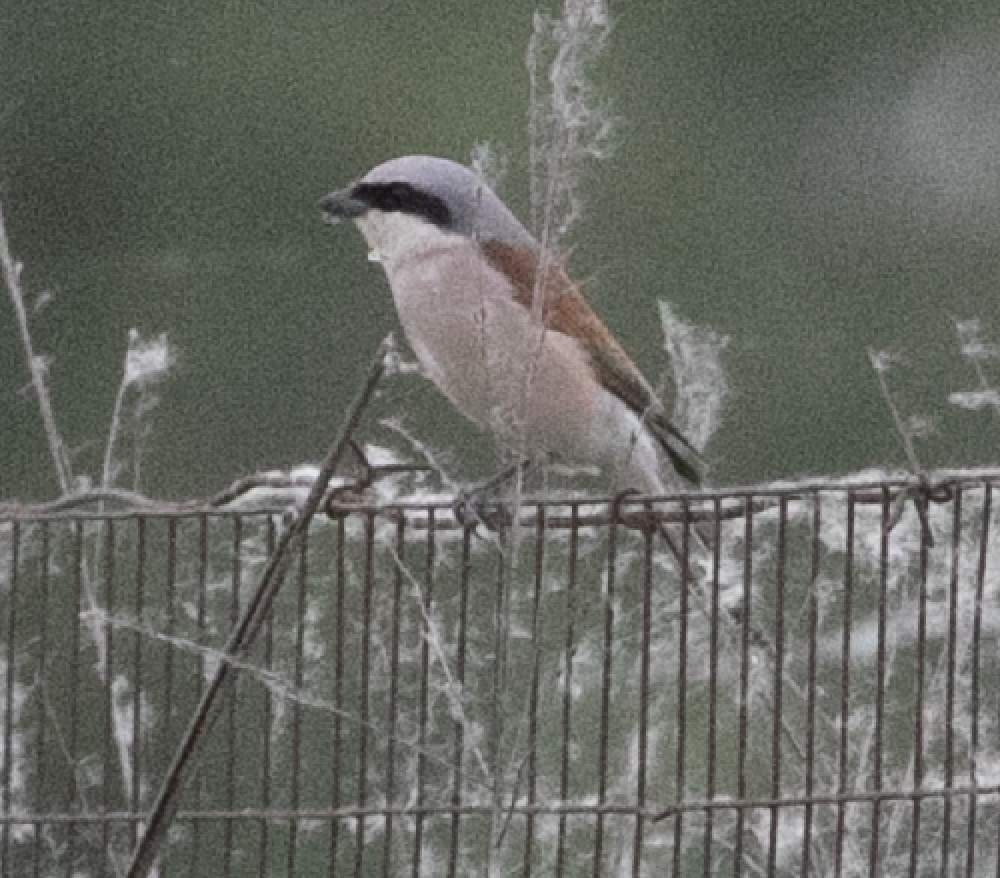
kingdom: Animalia
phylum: Chordata
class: Aves
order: Passeriformes
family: Laniidae
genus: Lanius
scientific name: Lanius collurio
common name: Red-backed shrike
